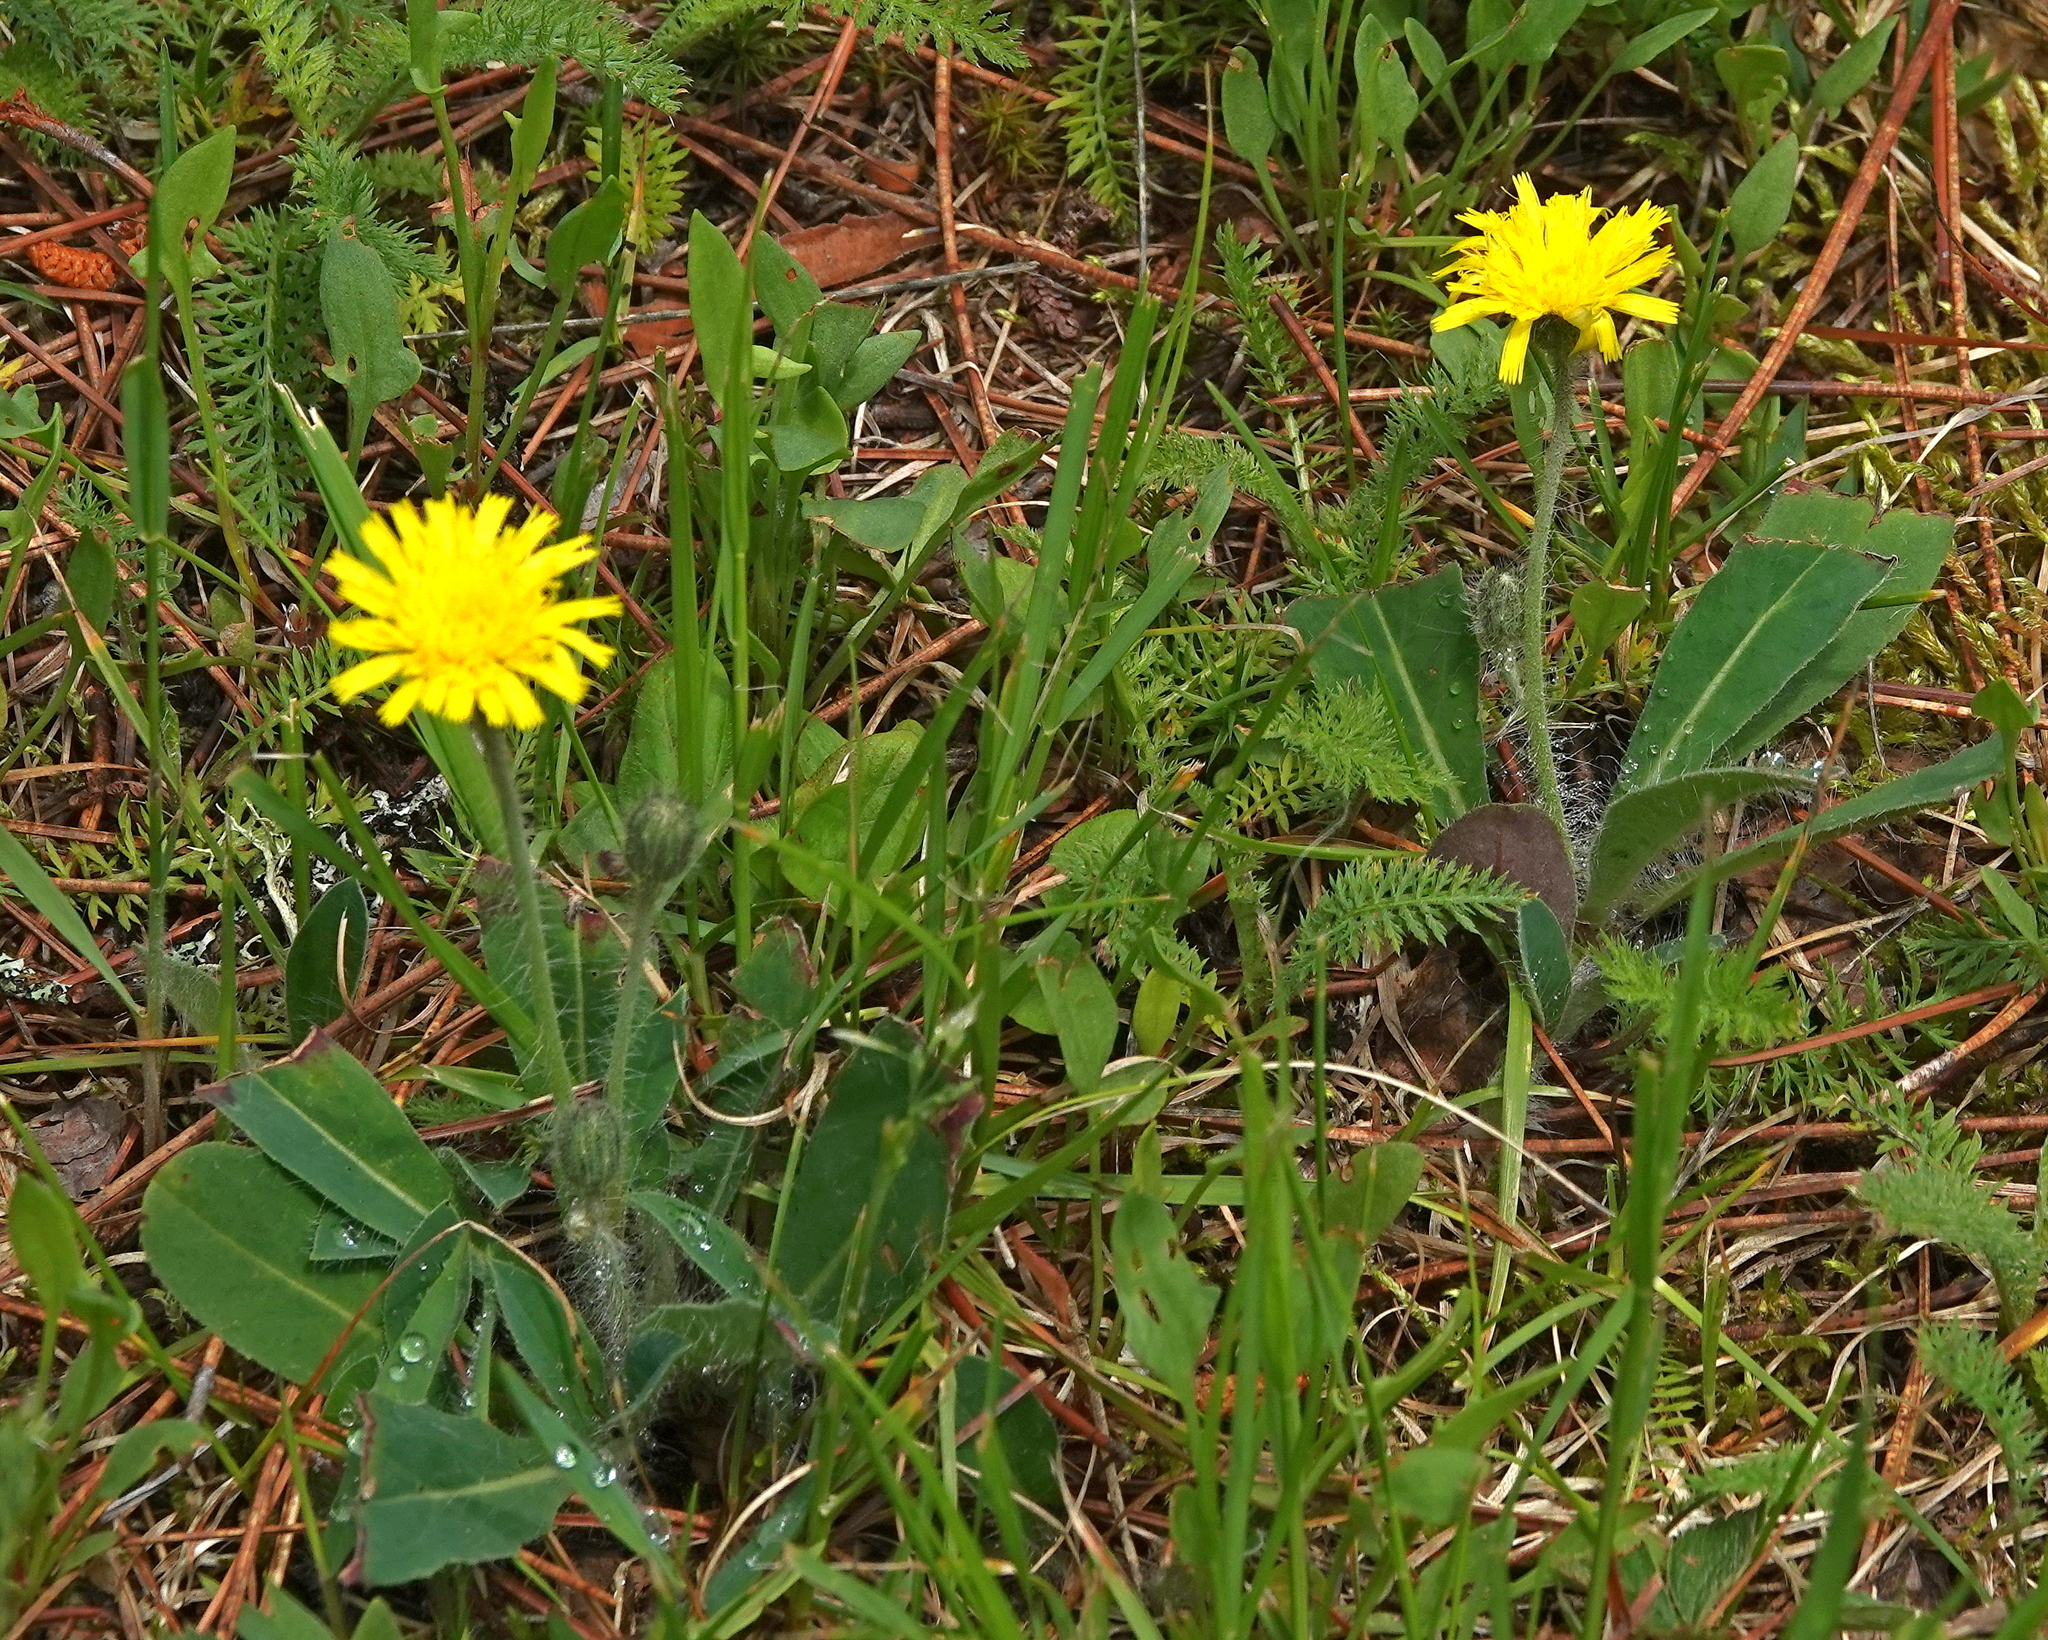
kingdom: Plantae
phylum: Tracheophyta
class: Magnoliopsida
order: Asterales
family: Asteraceae
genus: Pilosella
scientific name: Pilosella officinarum
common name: Mouse-ear hawkweed
